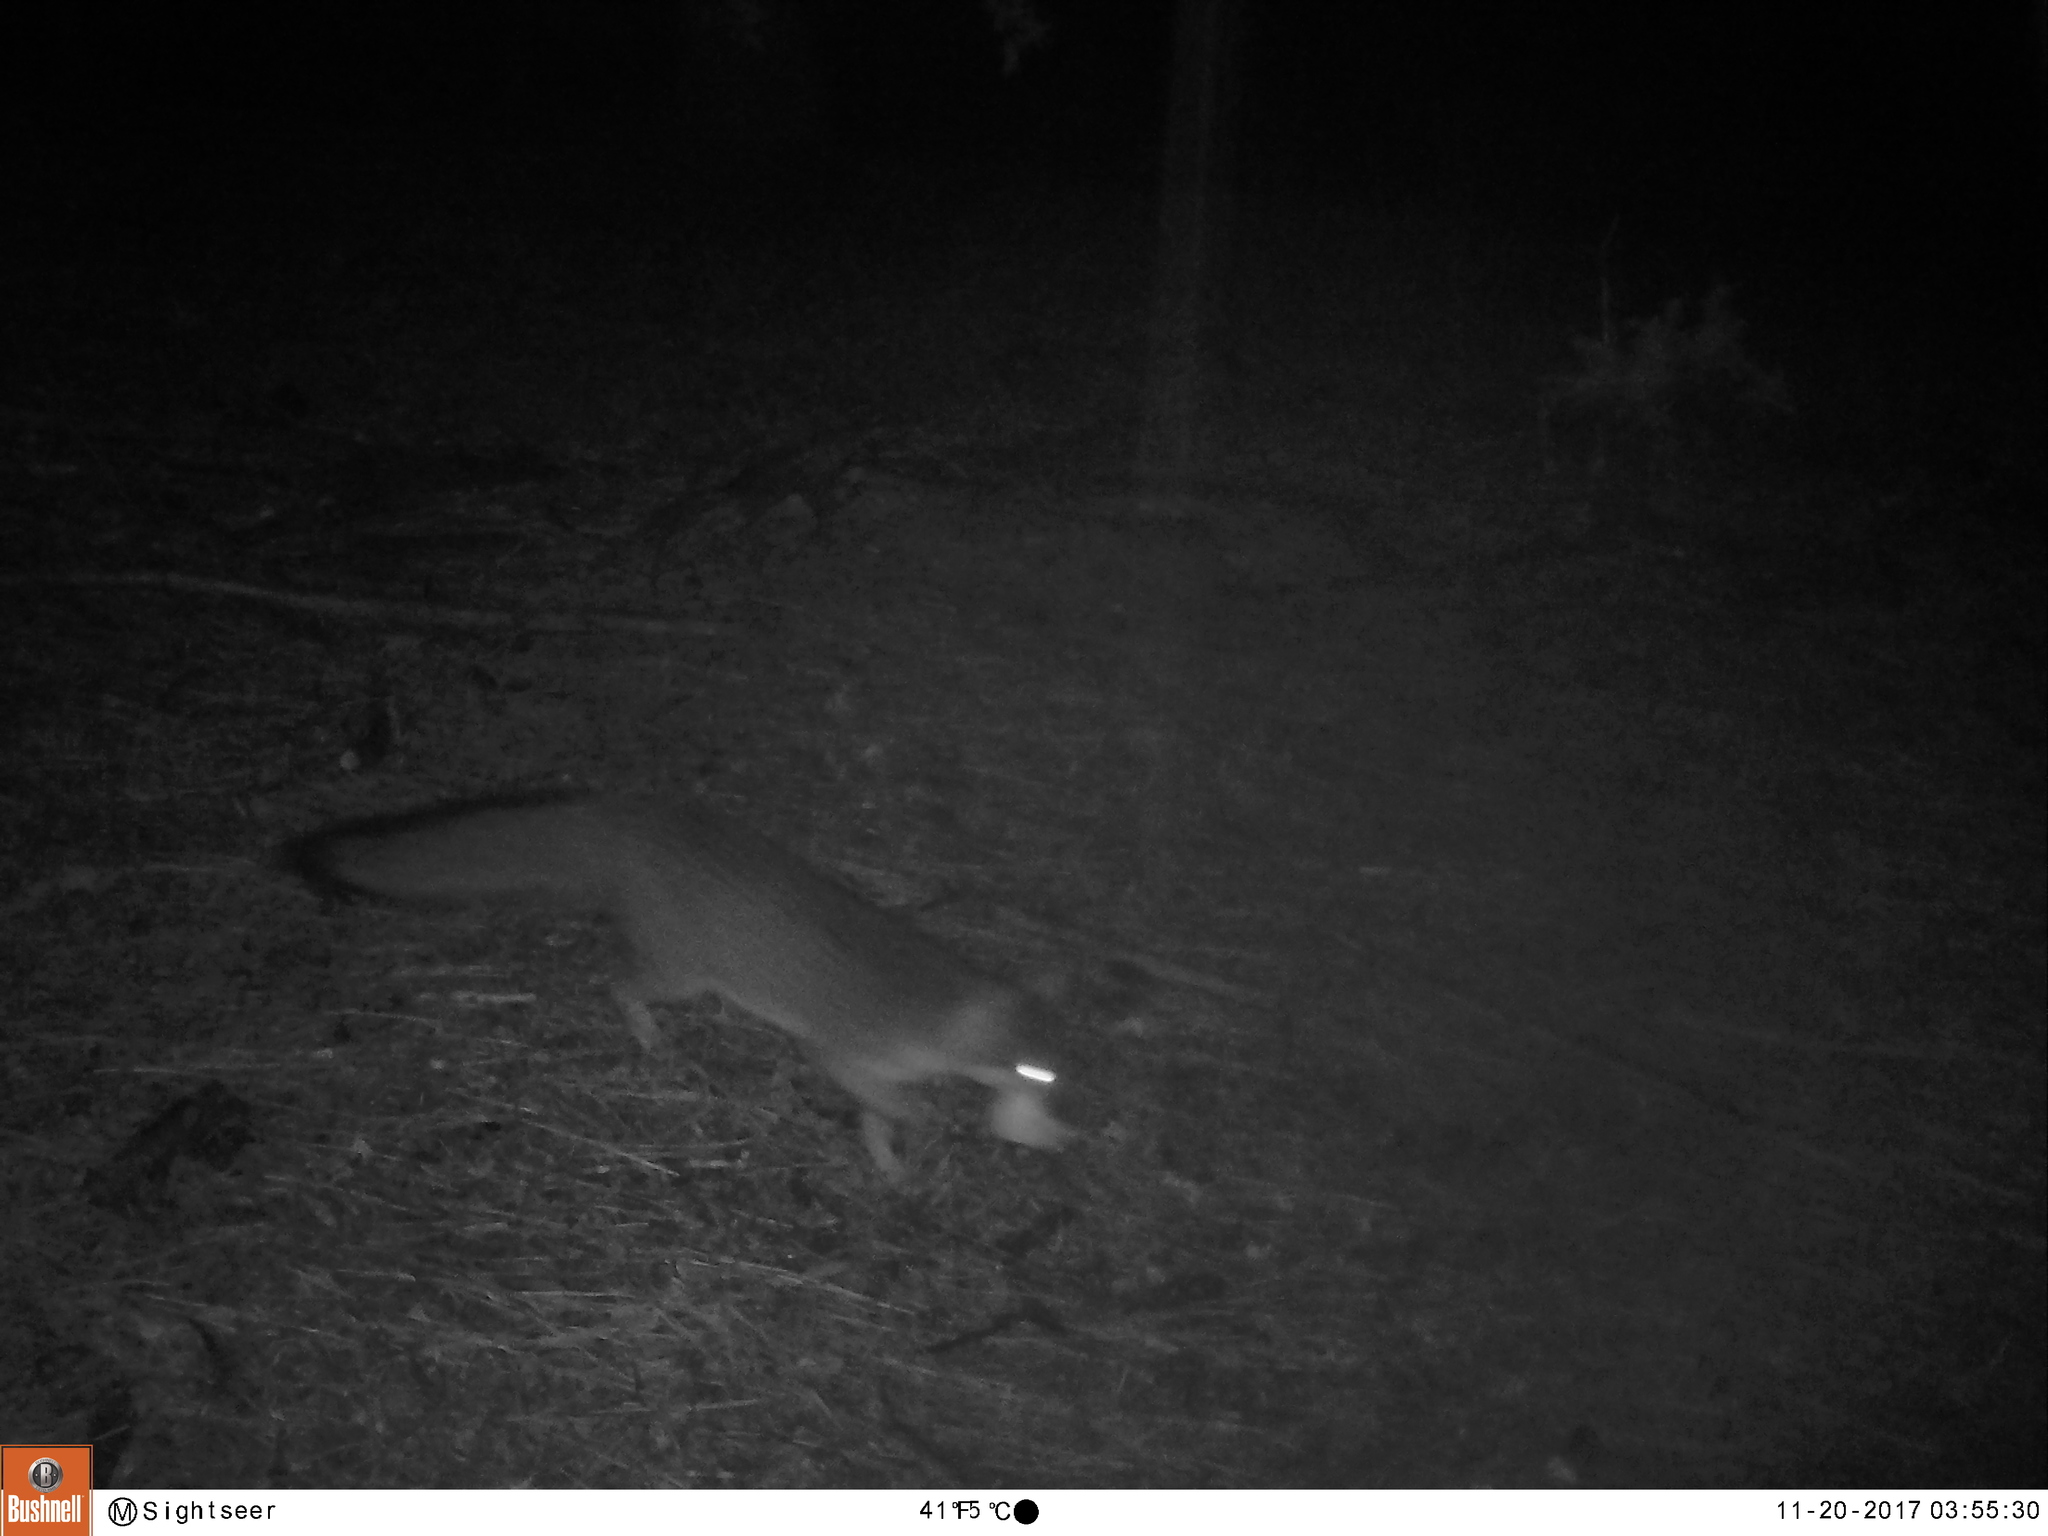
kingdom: Animalia
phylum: Chordata
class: Mammalia
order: Carnivora
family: Canidae
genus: Urocyon
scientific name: Urocyon cinereoargenteus
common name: Gray fox
